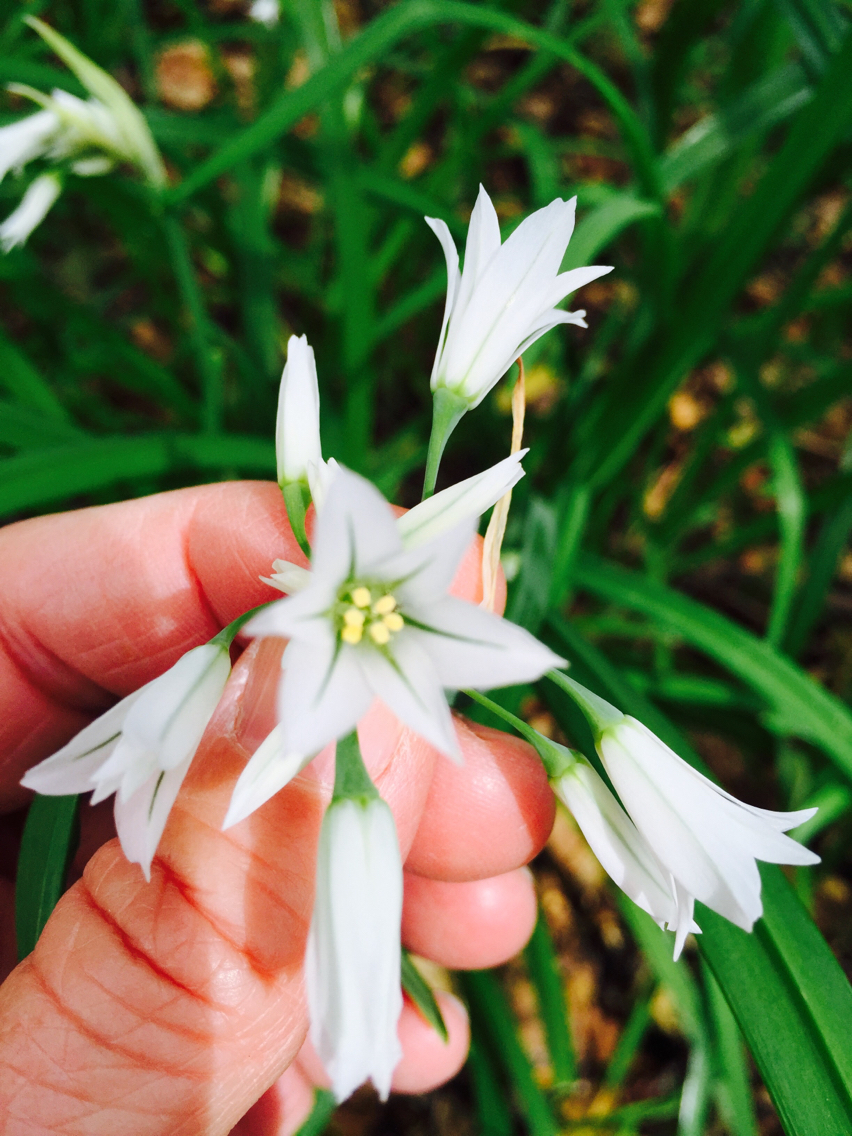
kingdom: Plantae
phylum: Tracheophyta
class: Liliopsida
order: Asparagales
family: Amaryllidaceae
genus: Allium
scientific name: Allium triquetrum
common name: Three-cornered garlic
